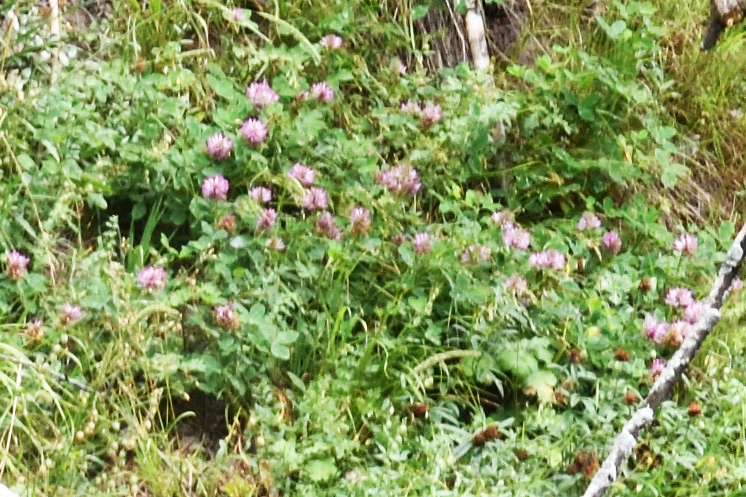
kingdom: Plantae
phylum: Tracheophyta
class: Magnoliopsida
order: Fabales
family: Fabaceae
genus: Trifolium
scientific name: Trifolium medium
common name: Zigzag clover
